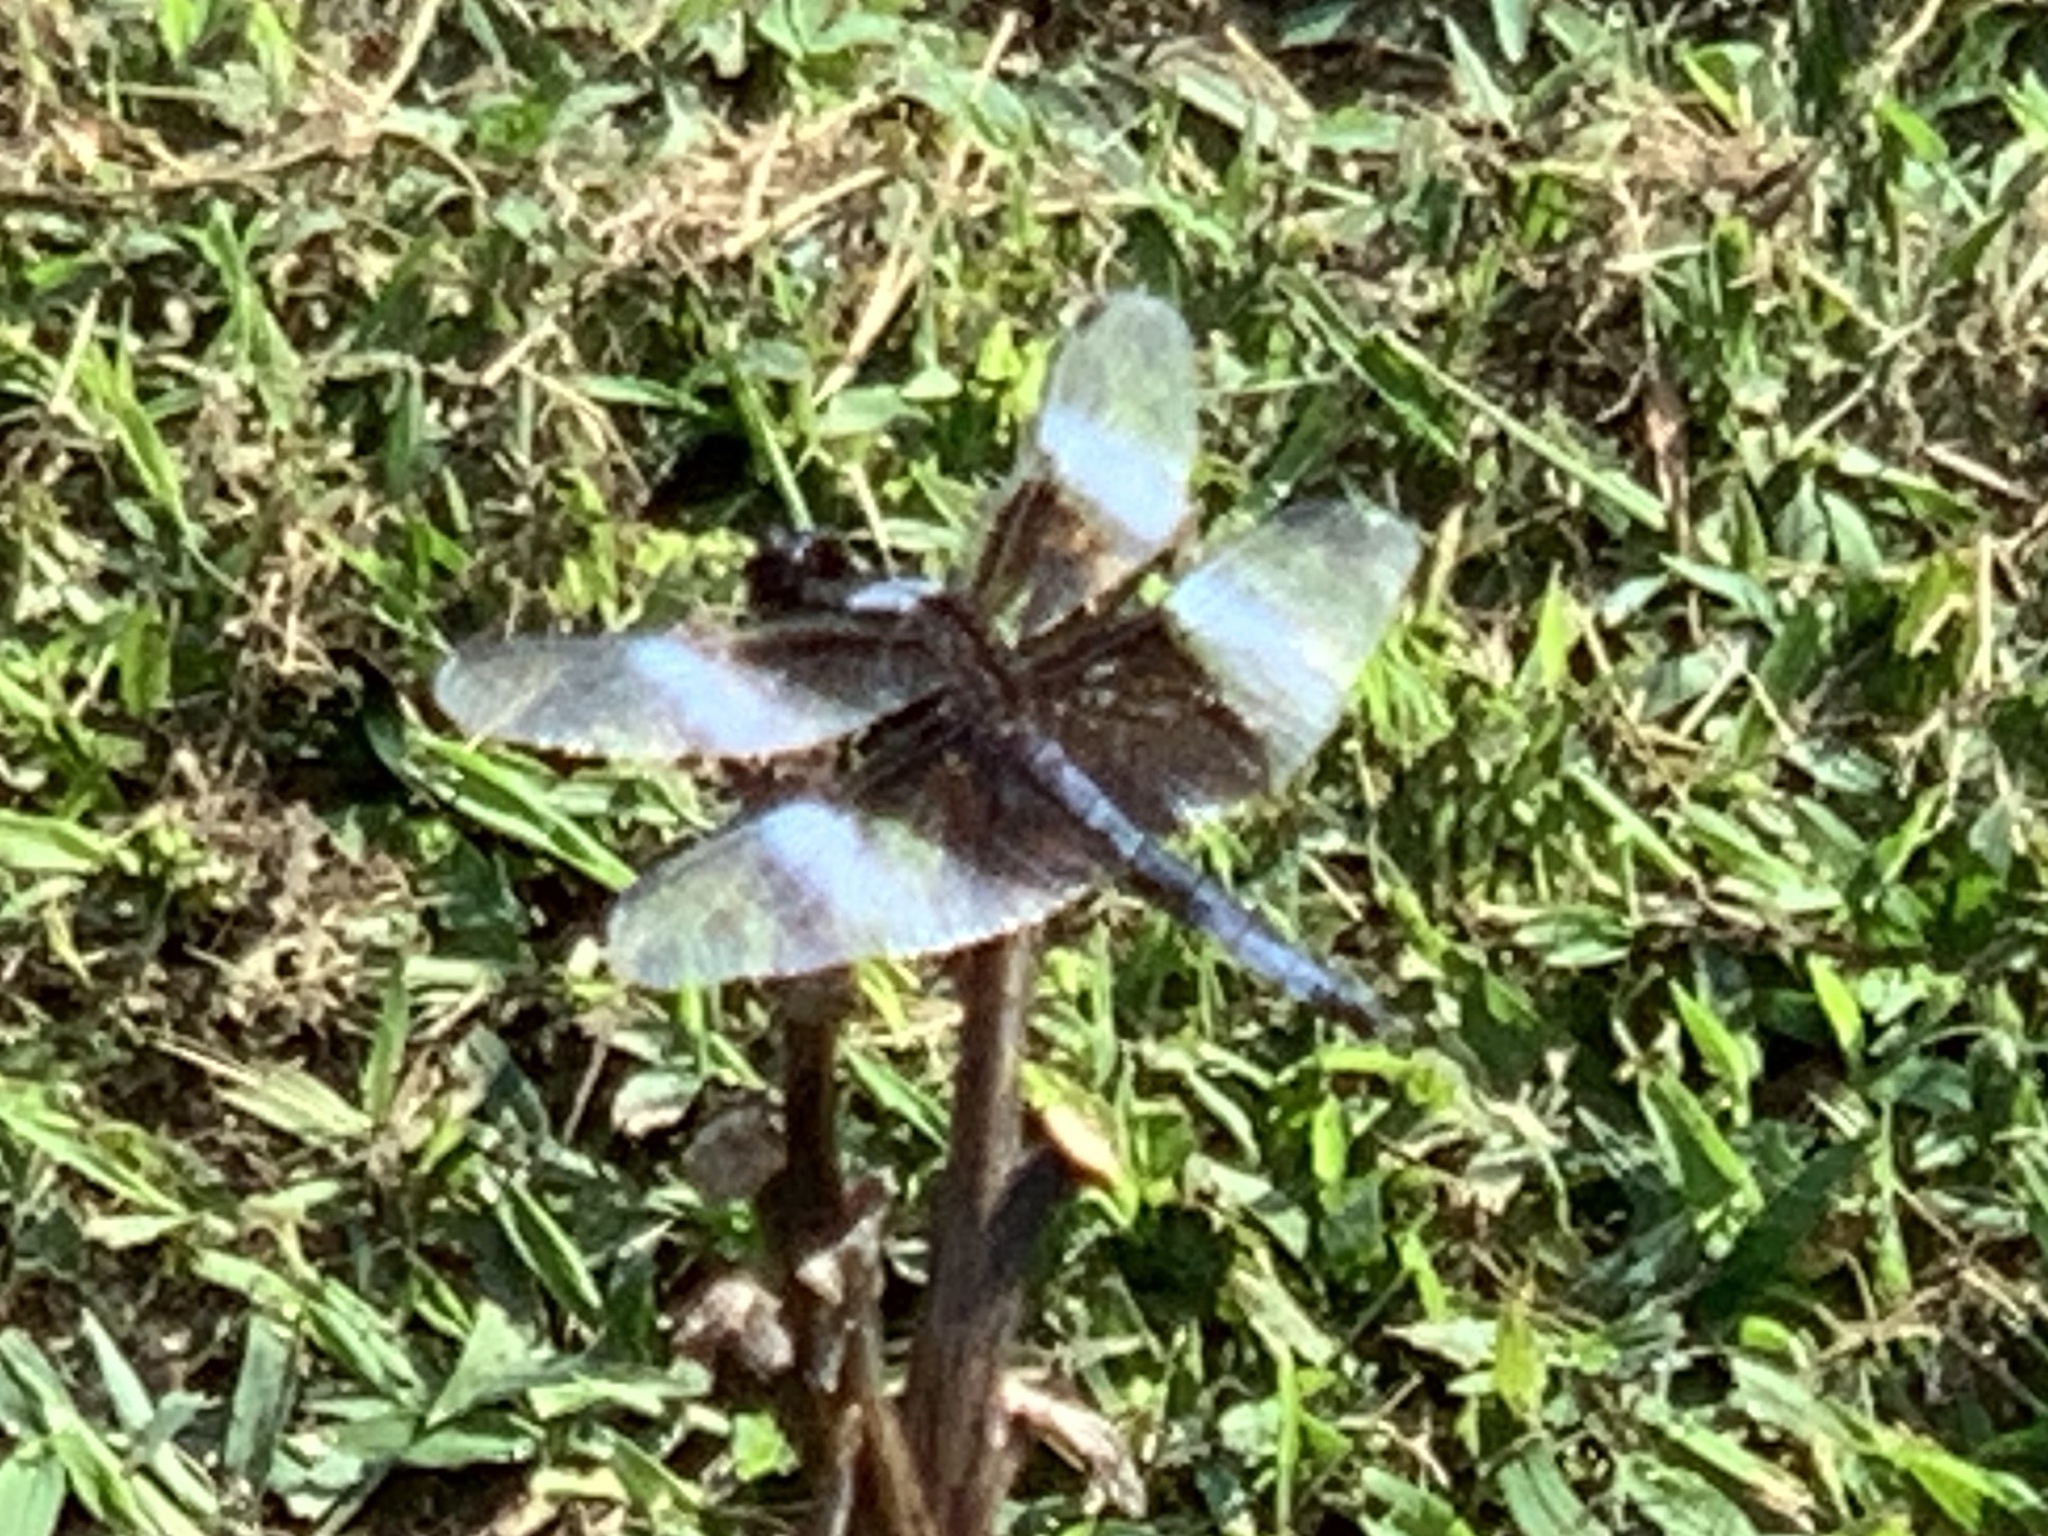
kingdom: Animalia
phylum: Arthropoda
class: Insecta
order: Odonata
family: Libellulidae
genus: Libellula
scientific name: Libellula luctuosa
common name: Widow skimmer
